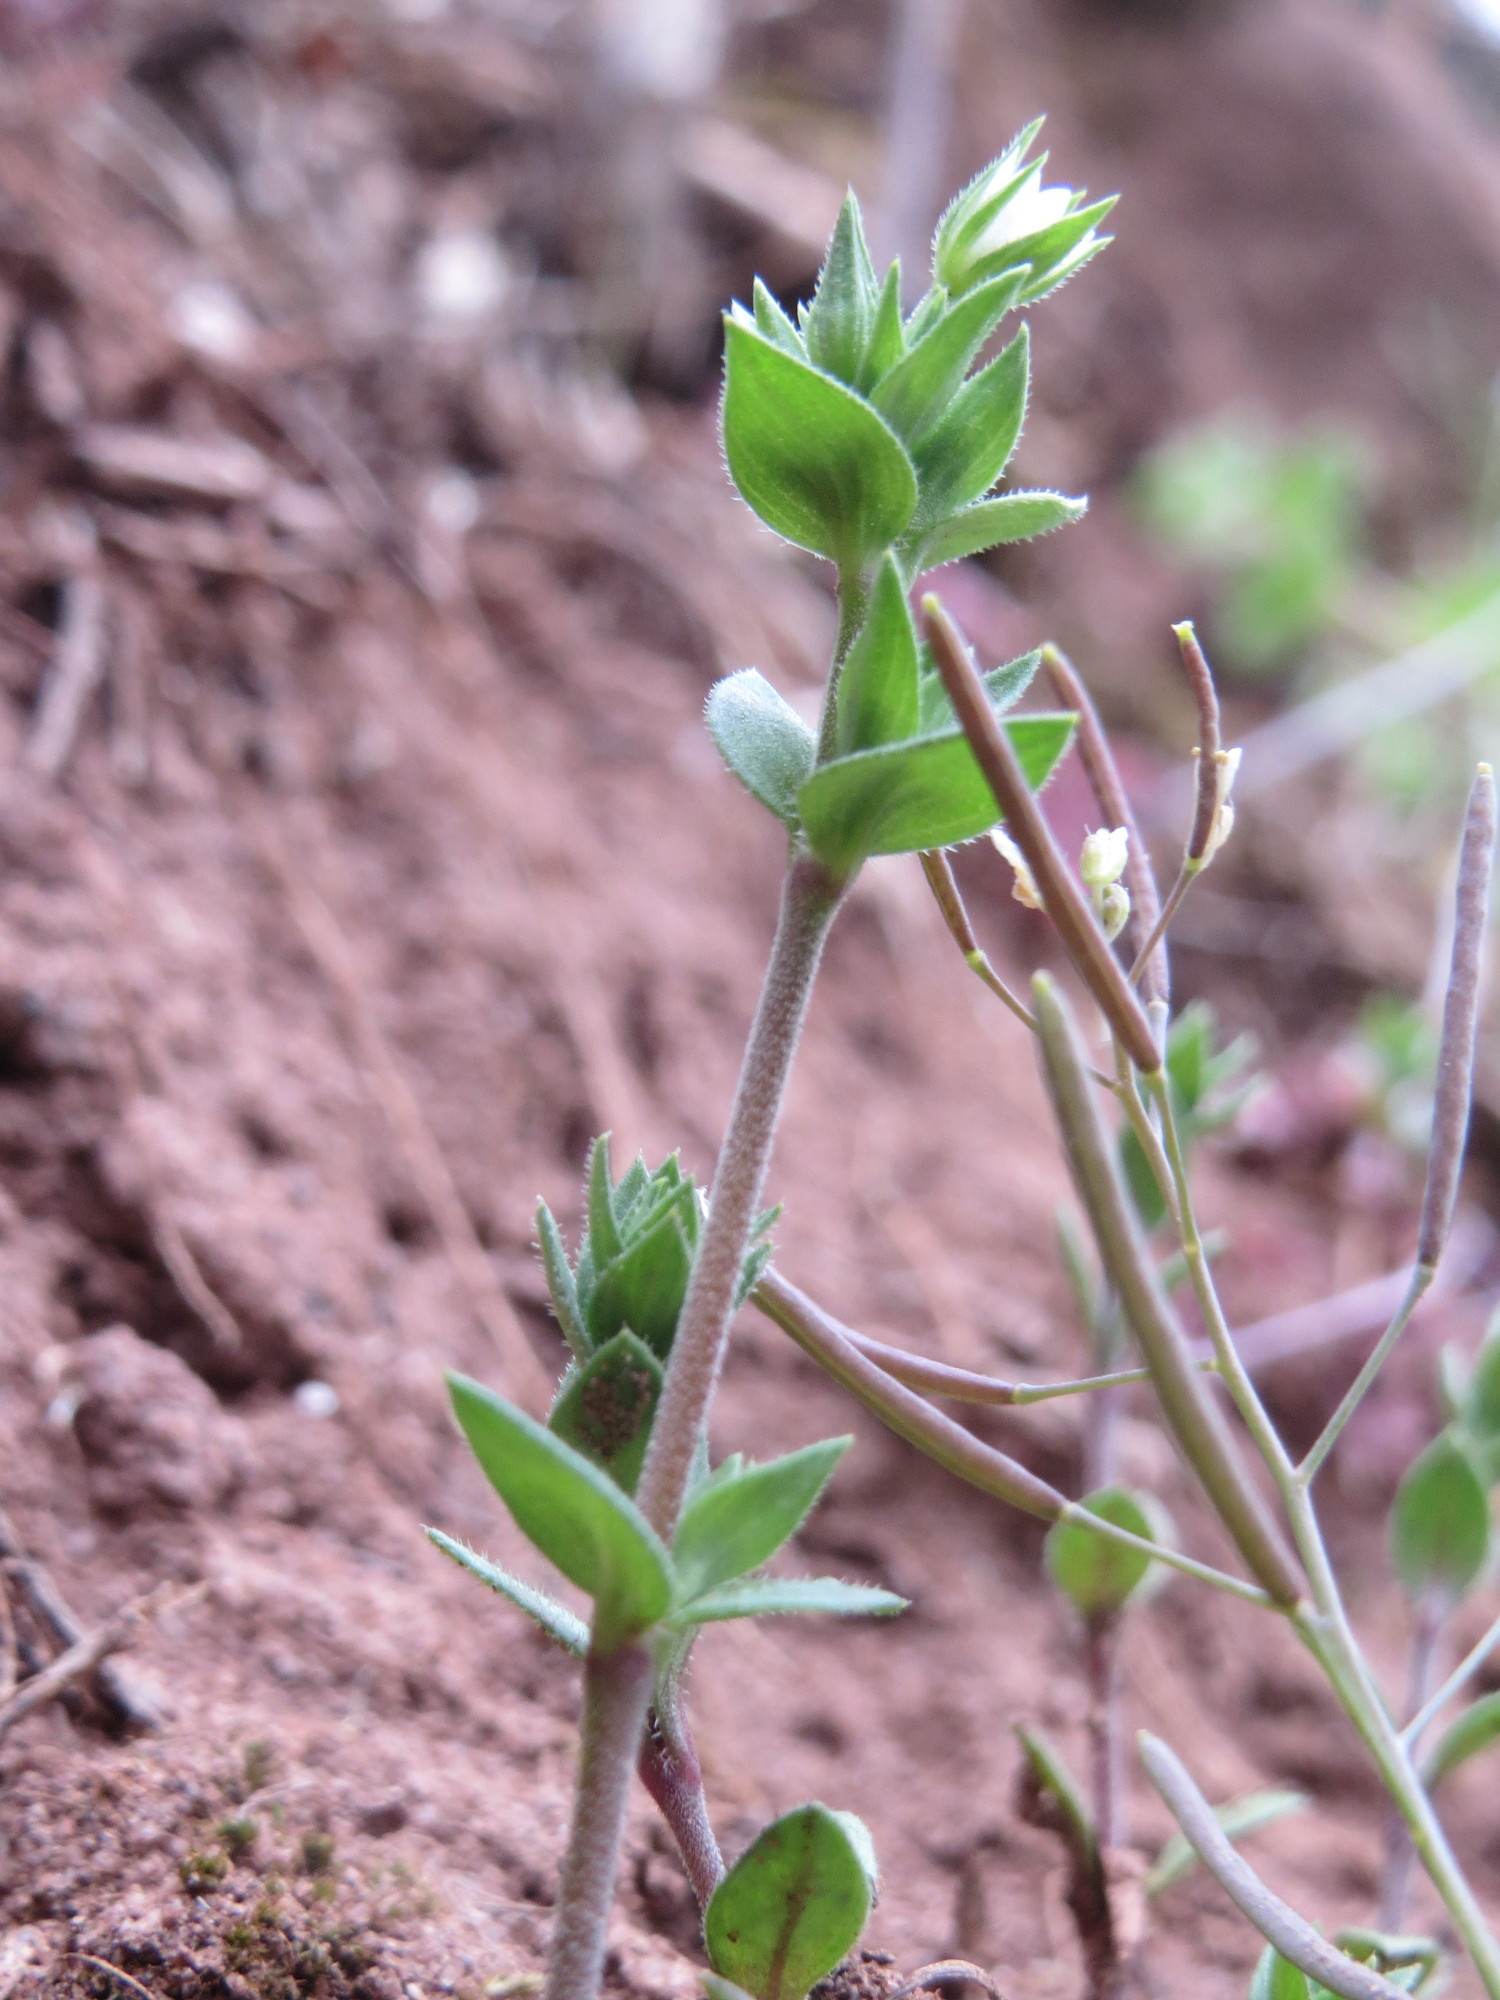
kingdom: Plantae
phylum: Tracheophyta
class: Magnoliopsida
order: Caryophyllales
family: Caryophyllaceae
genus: Arenaria
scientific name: Arenaria serpyllifolia
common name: Thyme-leaved sandwort
